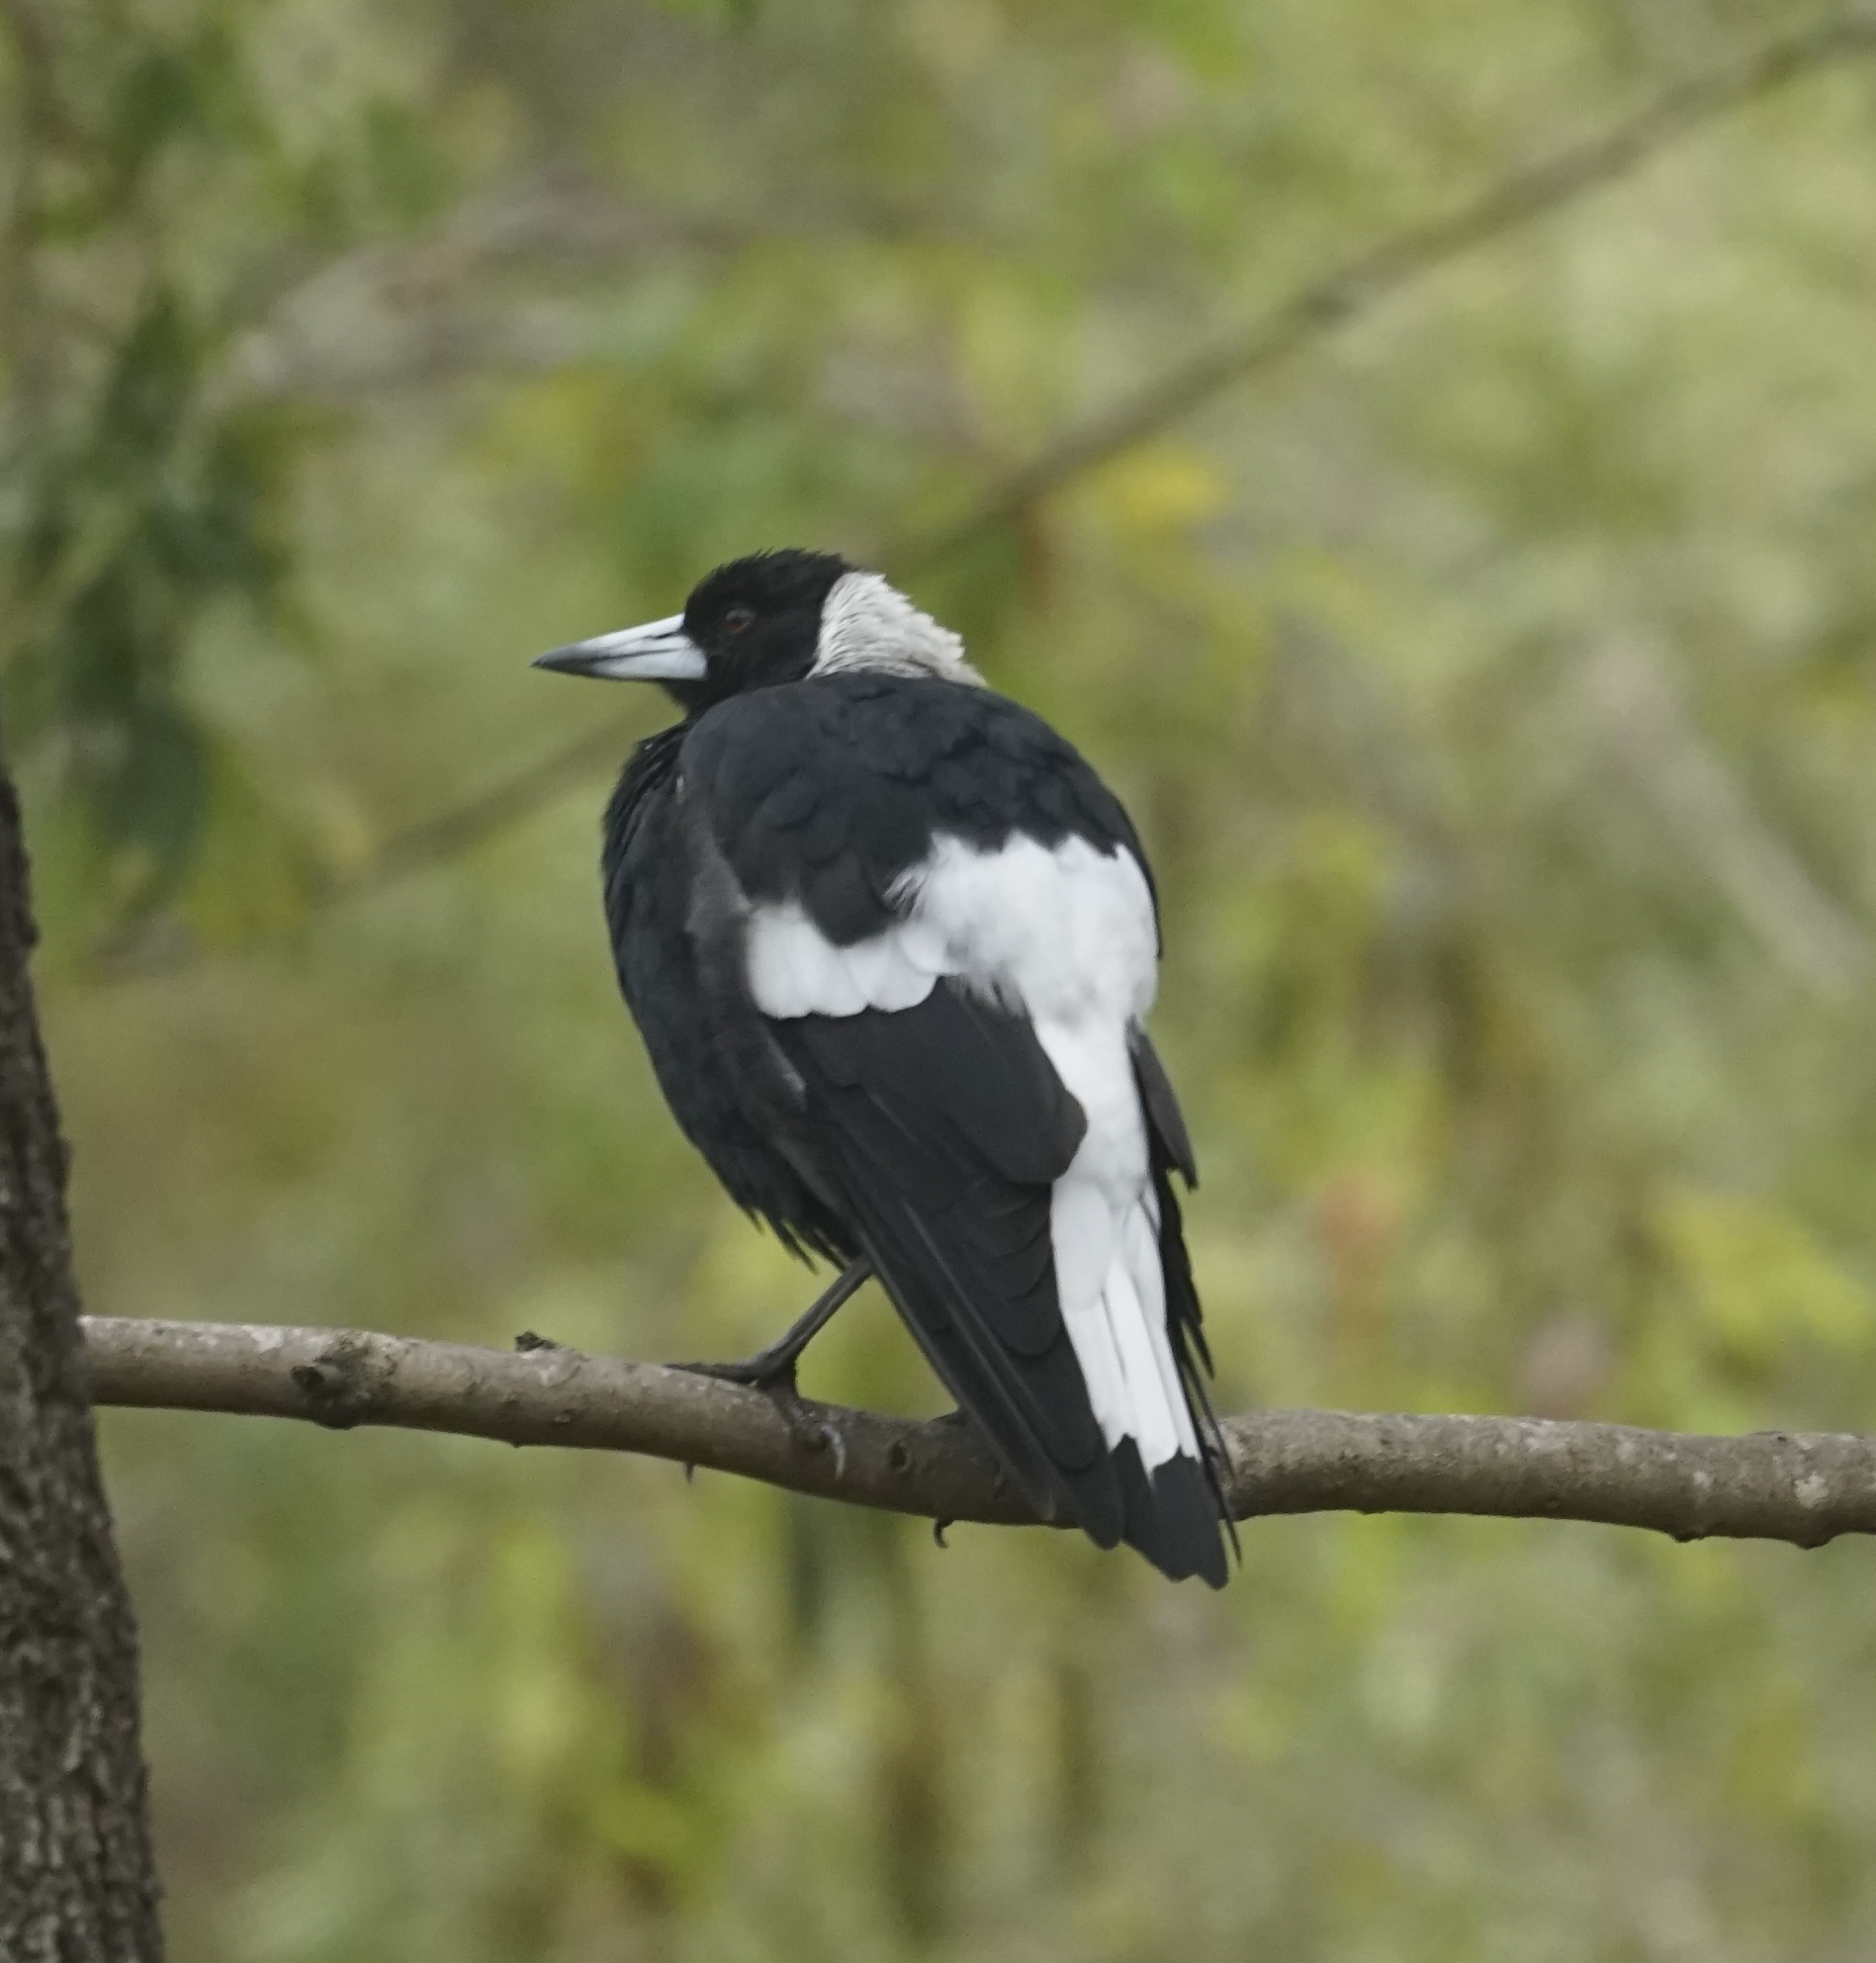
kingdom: Animalia
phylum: Chordata
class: Aves
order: Passeriformes
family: Cracticidae
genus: Gymnorhina
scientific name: Gymnorhina tibicen
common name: Australian magpie
